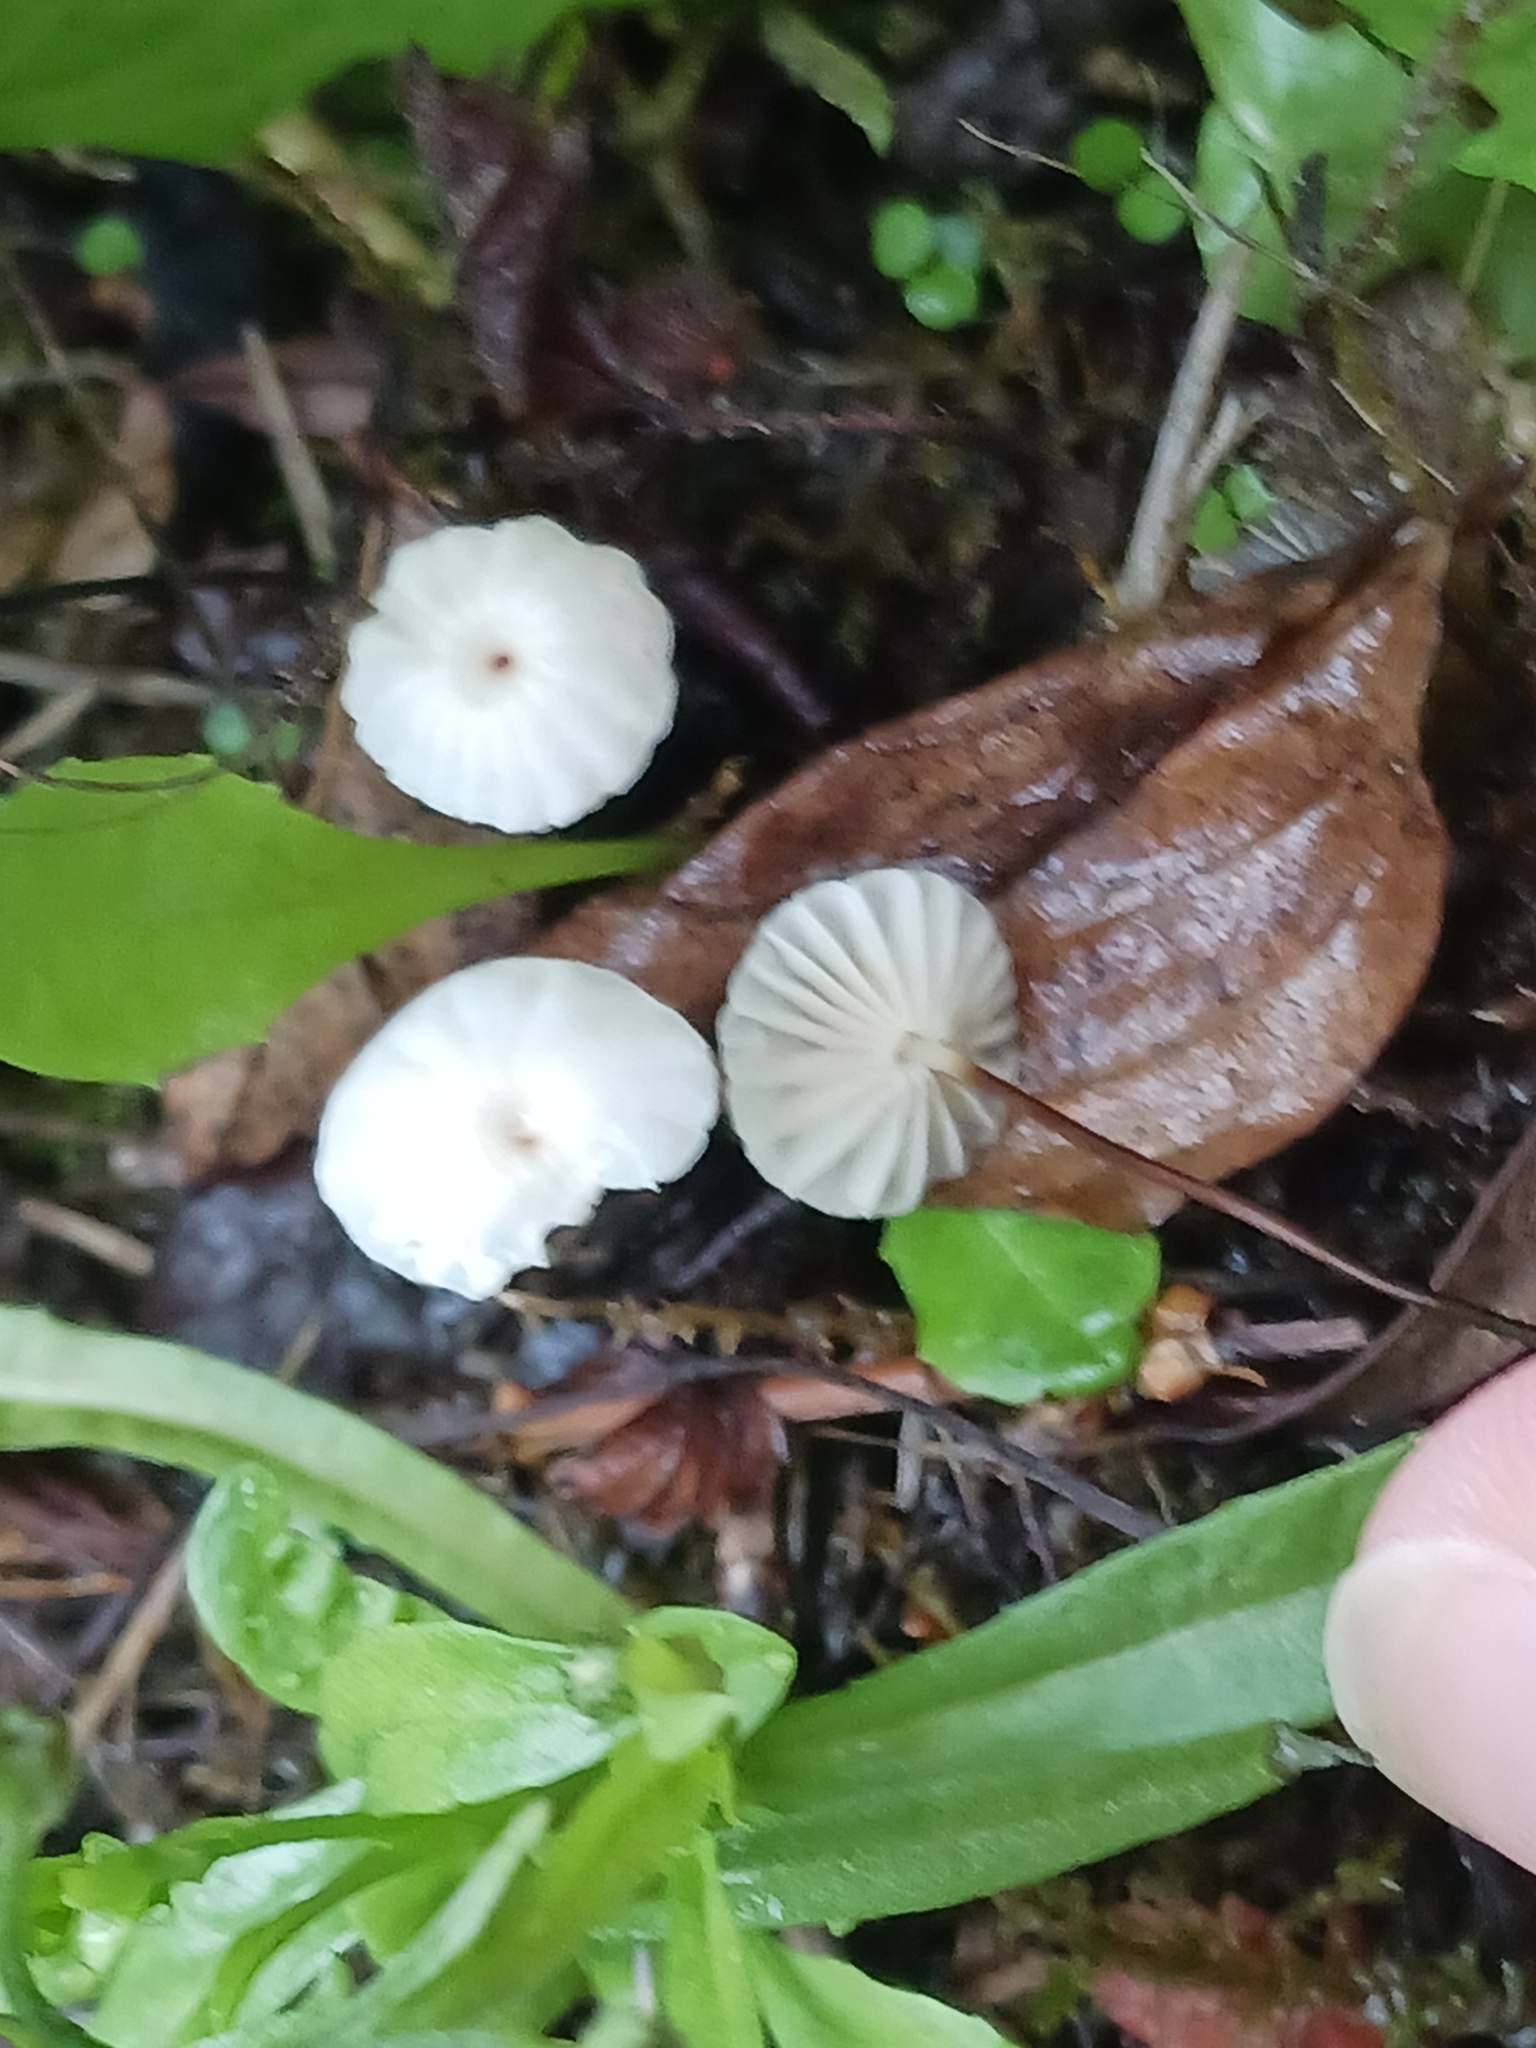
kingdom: Fungi
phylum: Basidiomycota
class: Agaricomycetes
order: Agaricales
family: Marasmiaceae
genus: Marasmius
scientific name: Marasmius rotula
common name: Collared parachute
